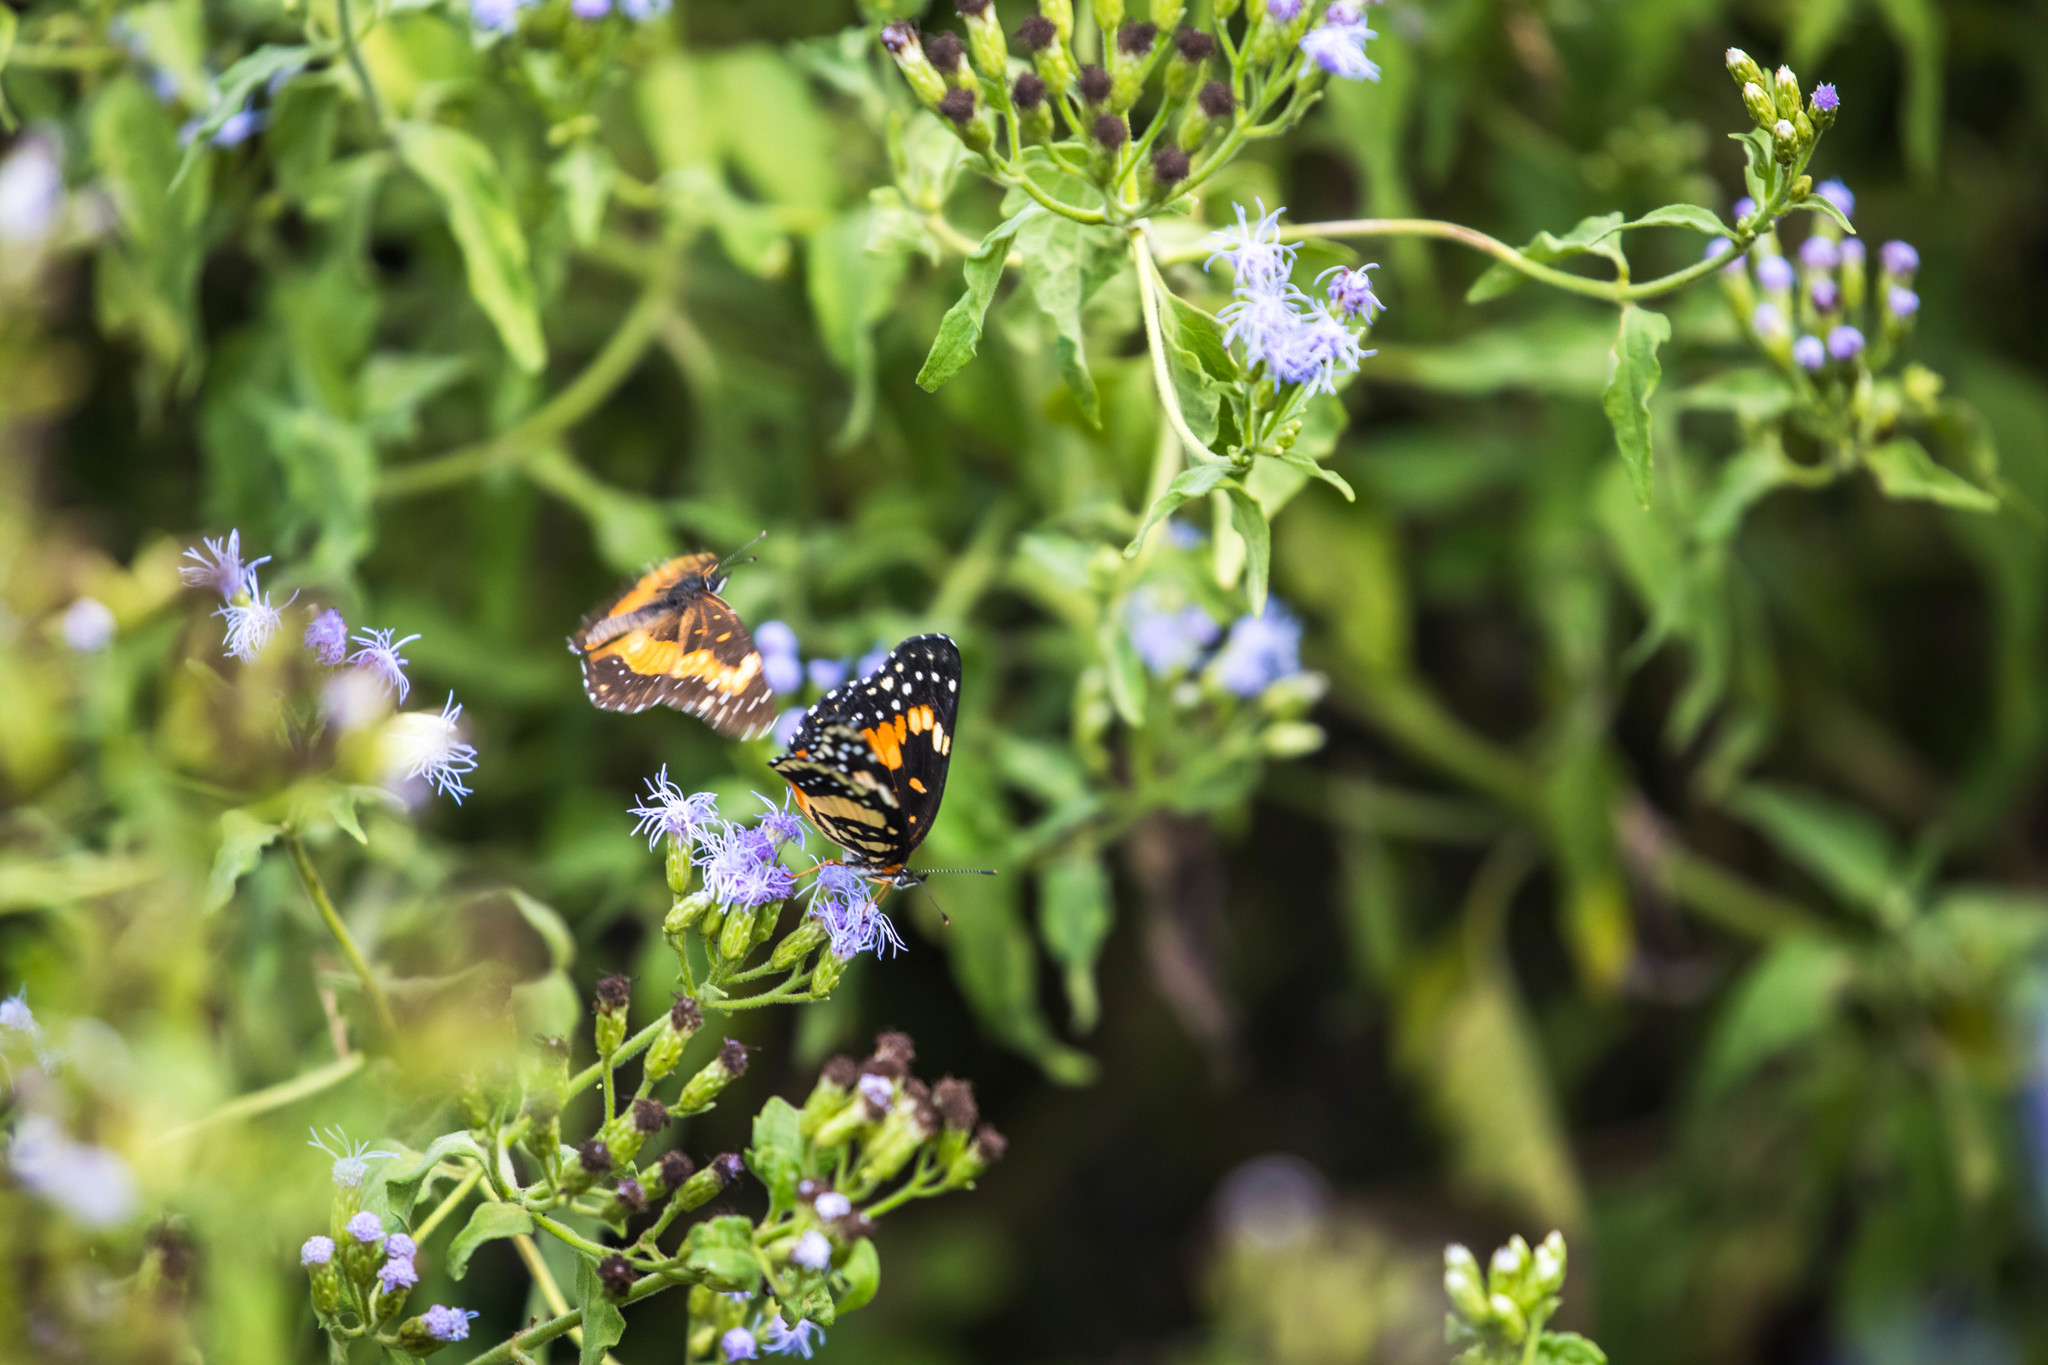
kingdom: Animalia
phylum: Arthropoda
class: Insecta
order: Lepidoptera
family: Nymphalidae
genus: Chlosyne
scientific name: Chlosyne lacinia
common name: Bordered patch
